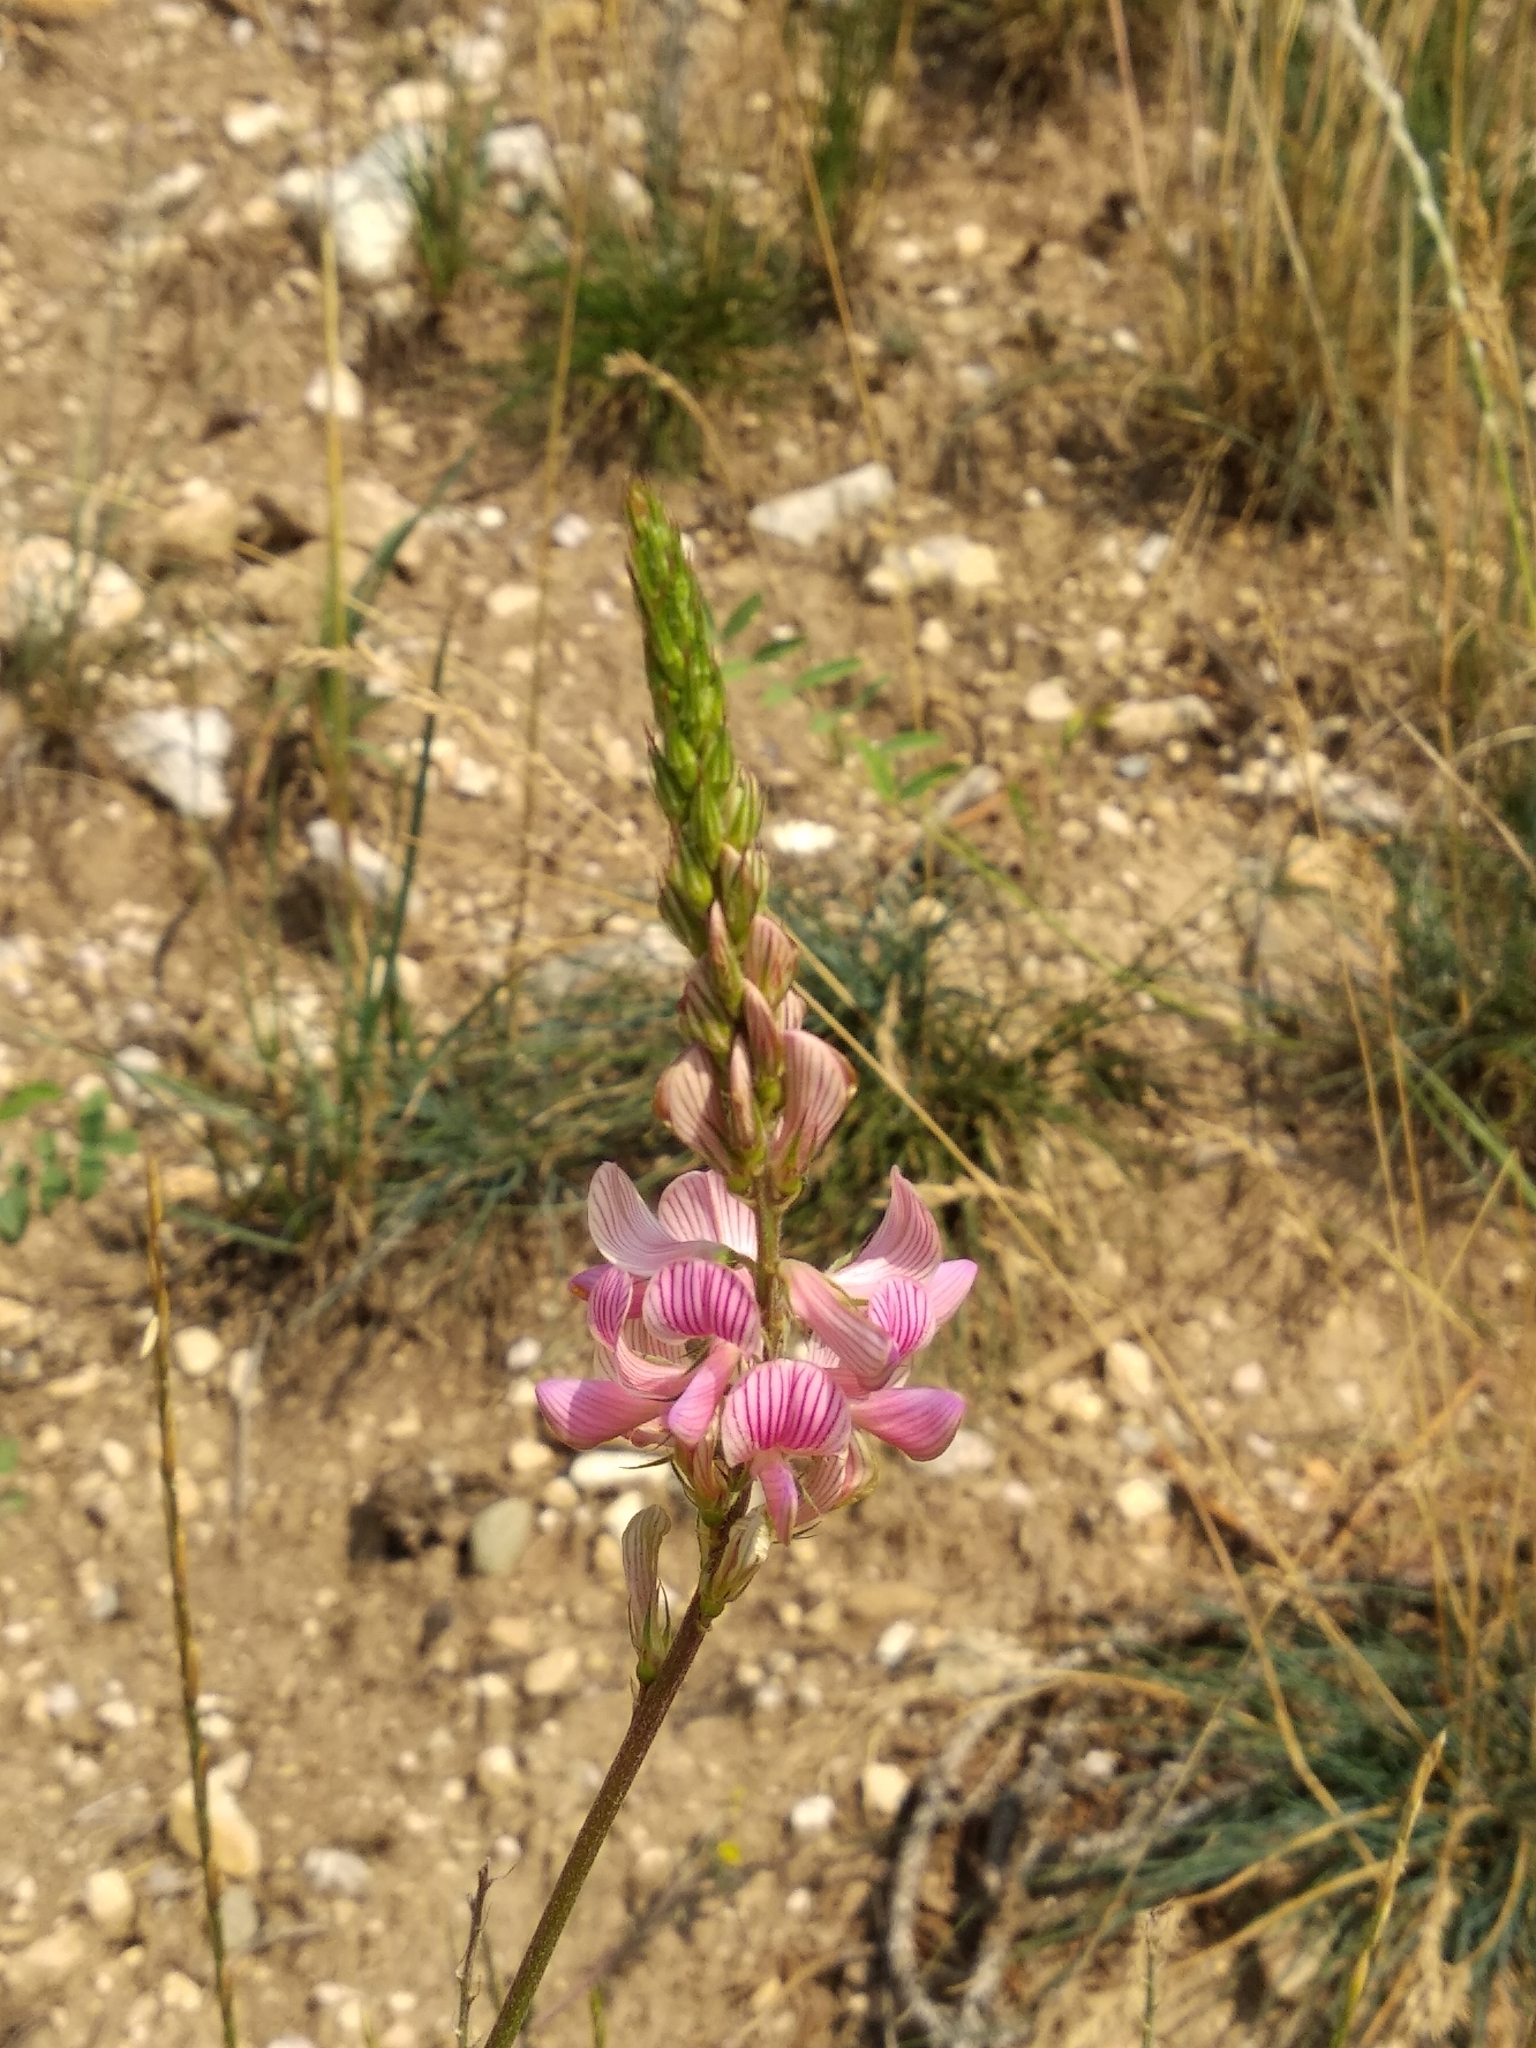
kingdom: Plantae
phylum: Tracheophyta
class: Magnoliopsida
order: Fabales
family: Fabaceae
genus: Onobrychis
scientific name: Onobrychis viciifolia
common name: Sainfoin
